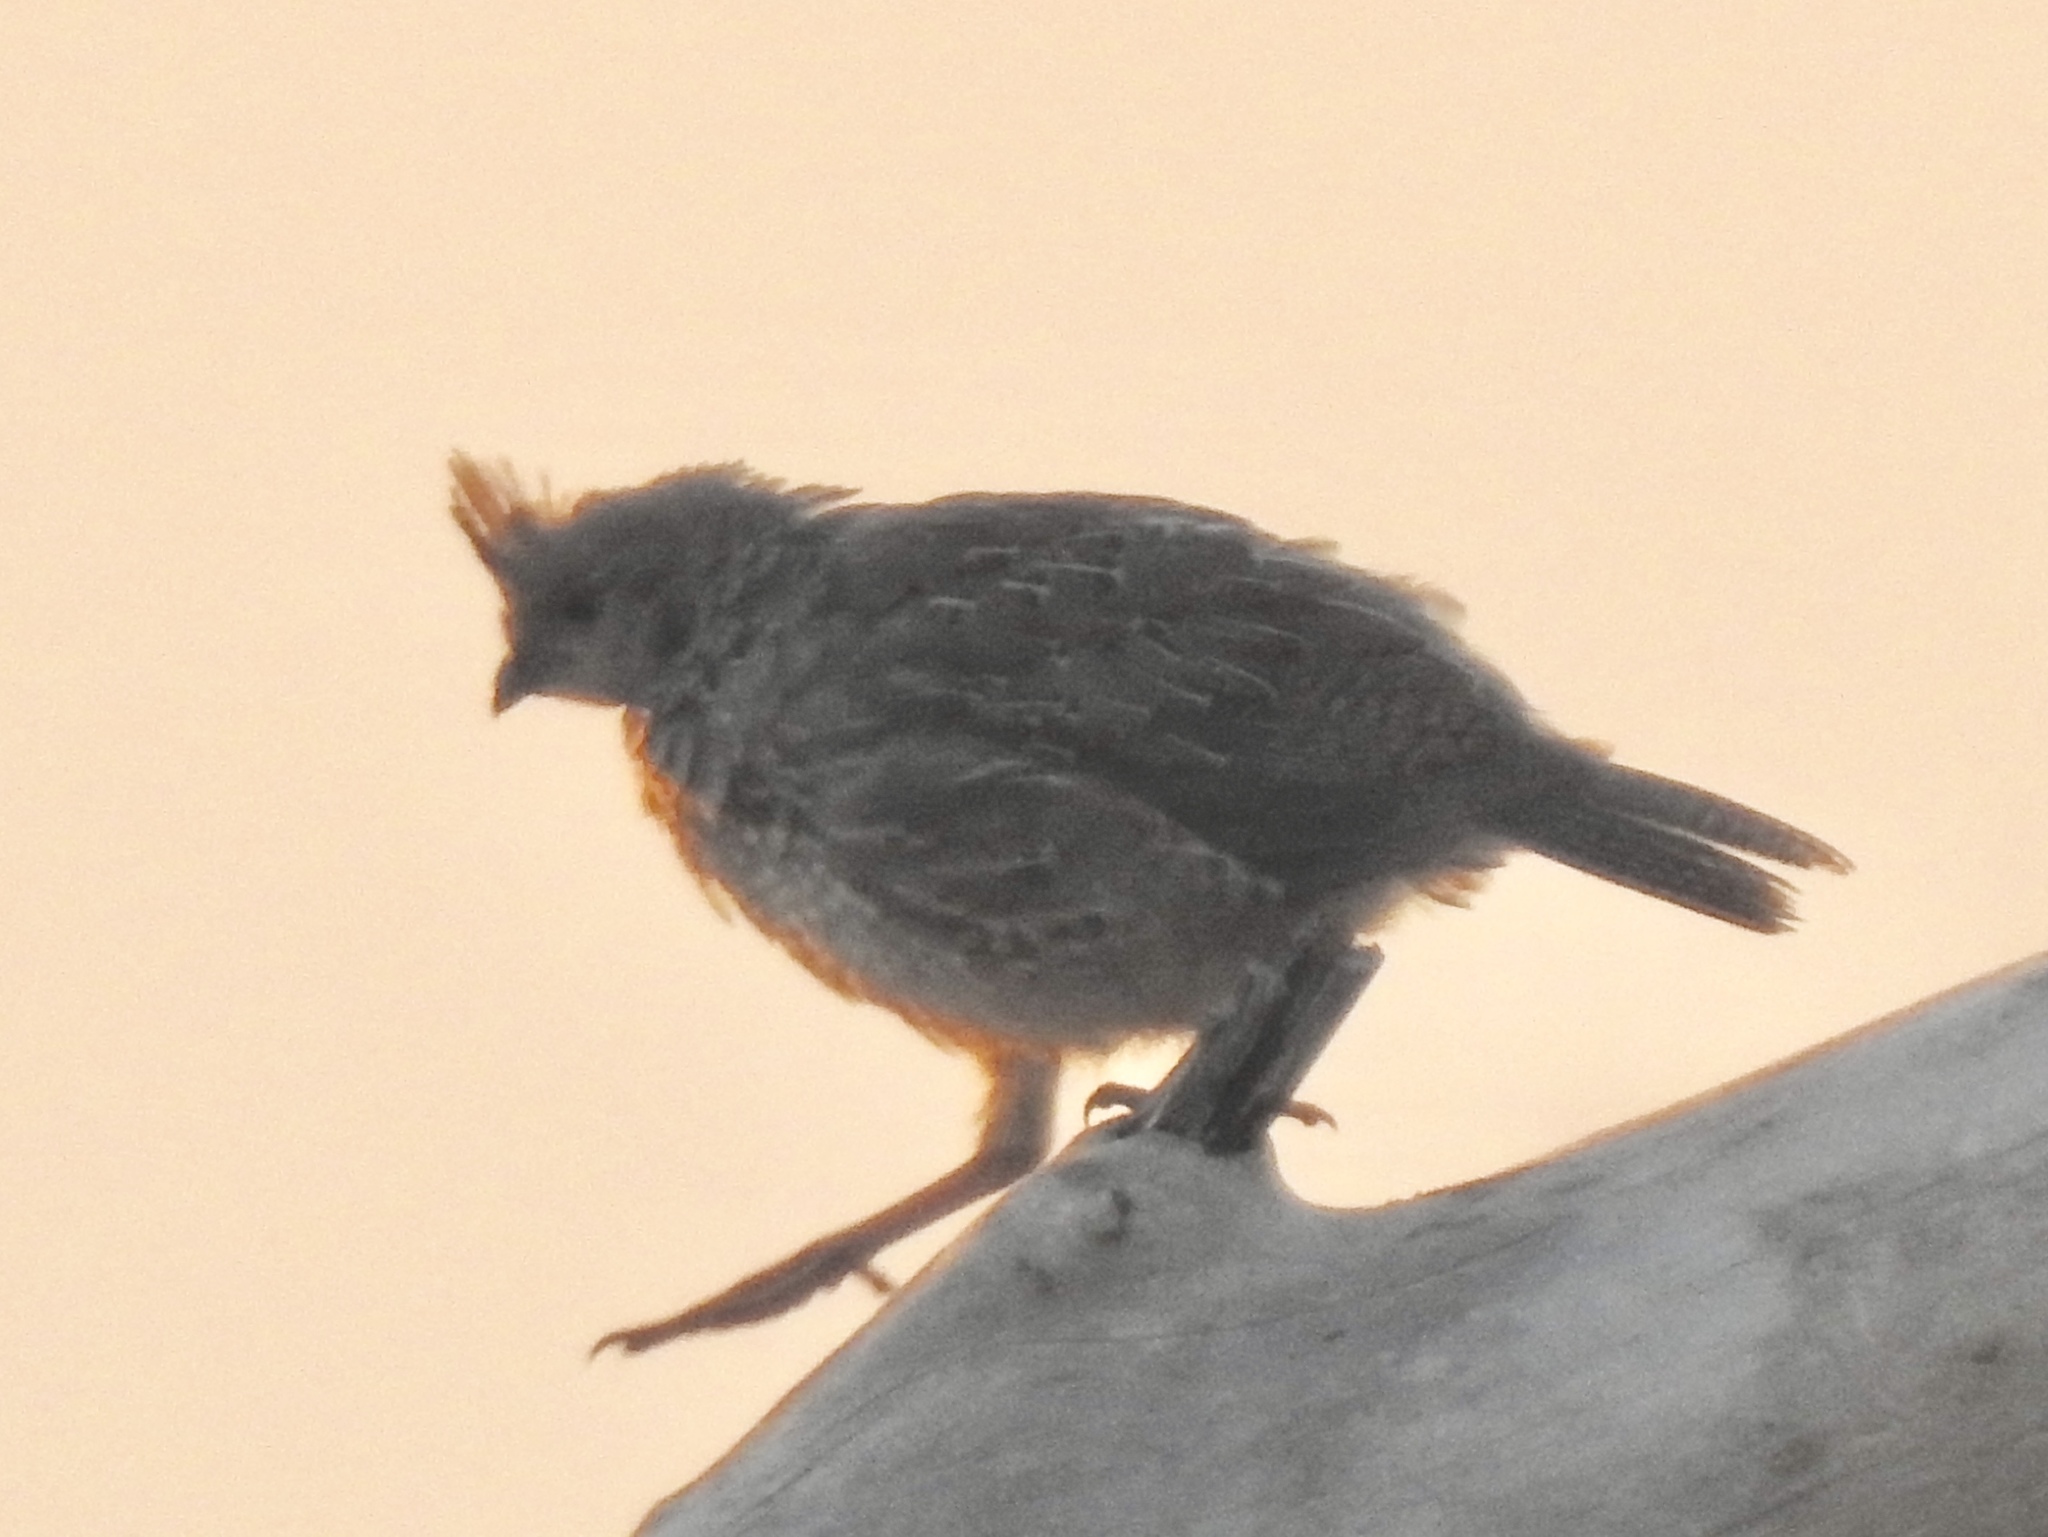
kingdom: Animalia
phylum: Chordata
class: Aves
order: Galliformes
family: Odontophoridae
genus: Callipepla
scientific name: Callipepla squamata
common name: Scaled quail
